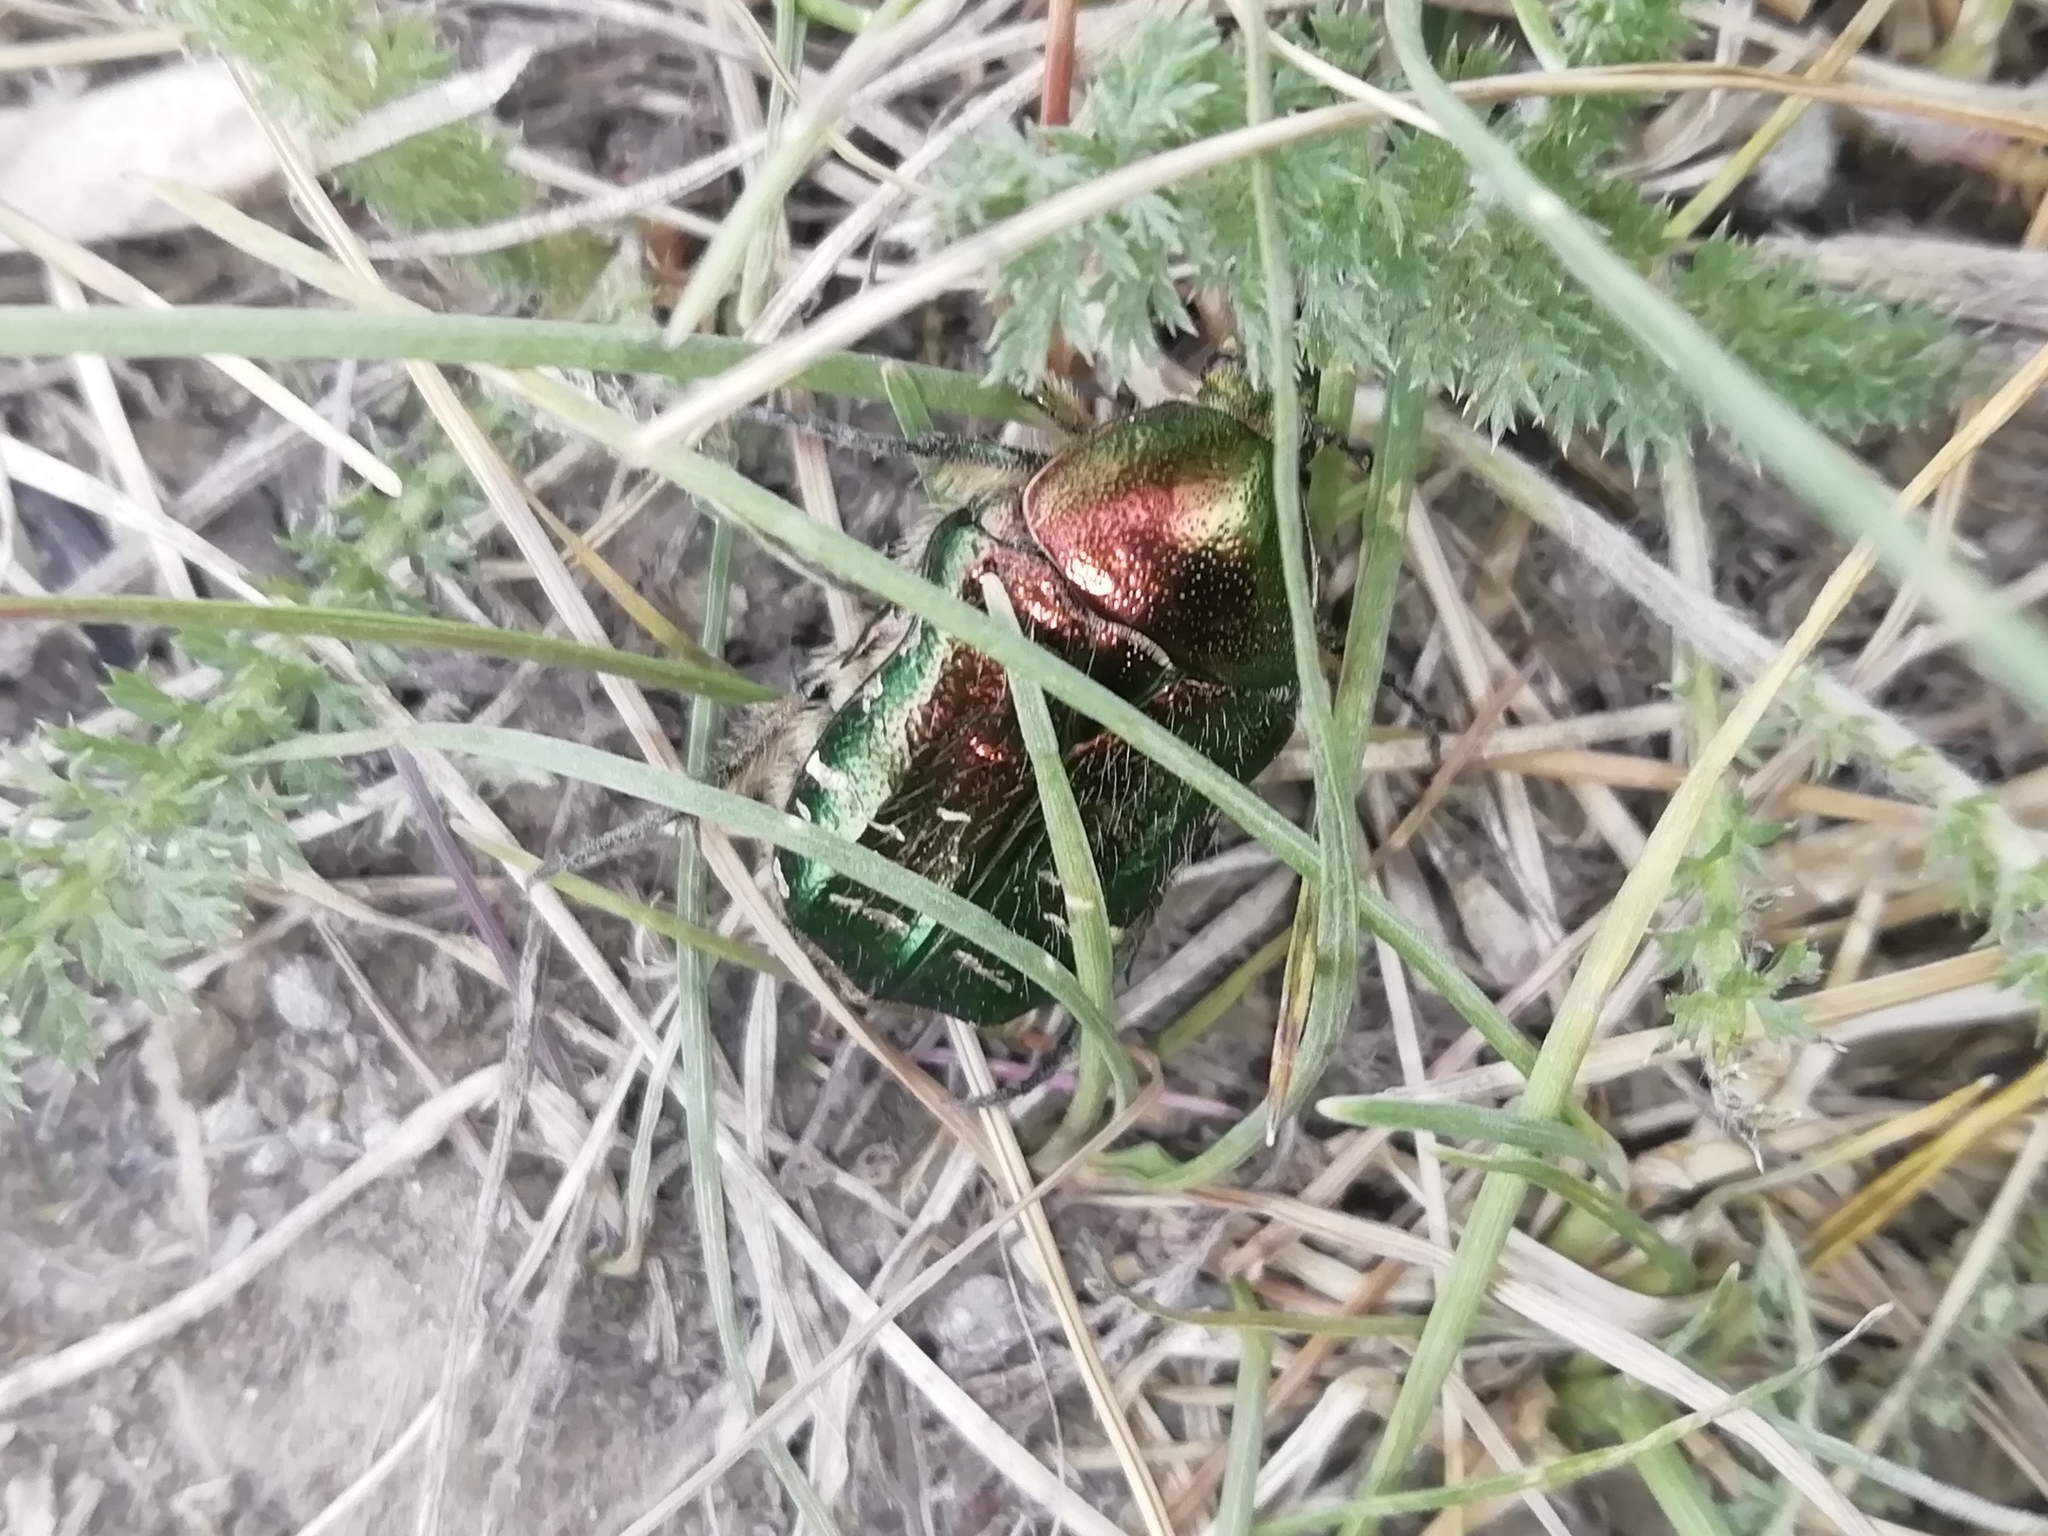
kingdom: Animalia
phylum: Arthropoda
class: Insecta
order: Coleoptera
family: Scarabaeidae
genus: Cetonia
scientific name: Cetonia aurata
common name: Rose chafer
